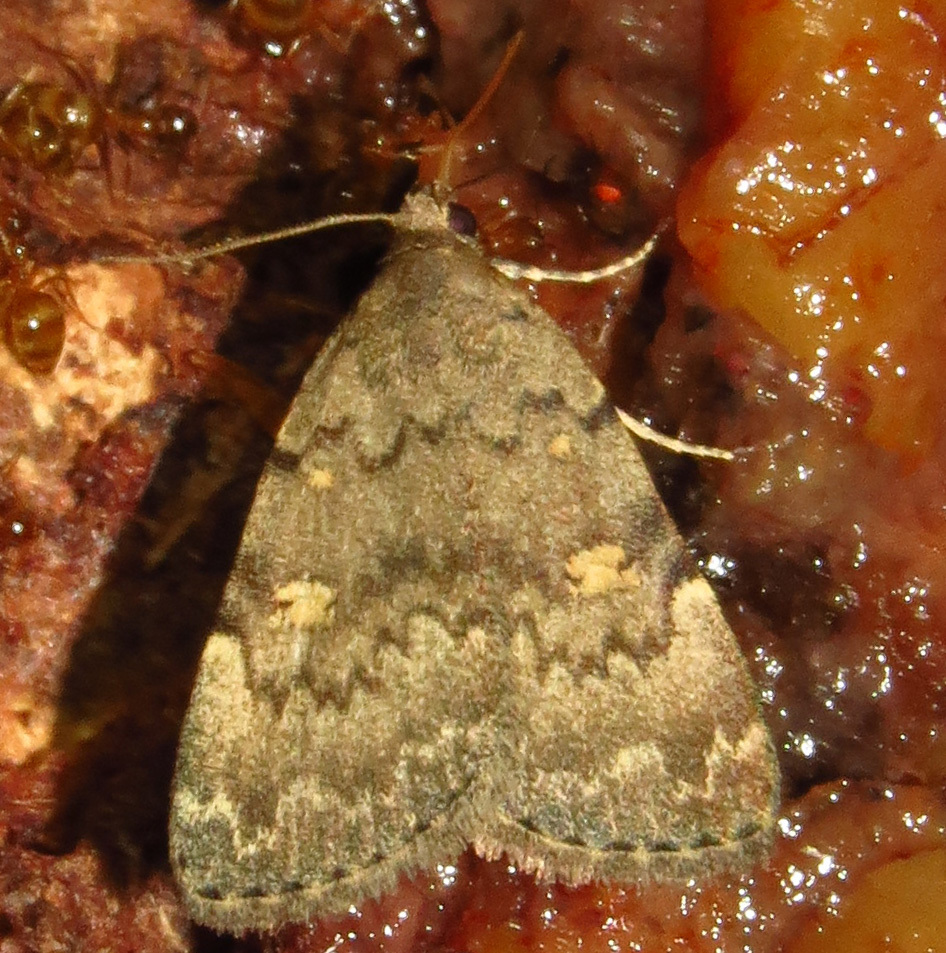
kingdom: Animalia
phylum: Arthropoda
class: Insecta
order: Lepidoptera
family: Erebidae
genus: Idia
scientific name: Idia aemula
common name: Common idia moth
